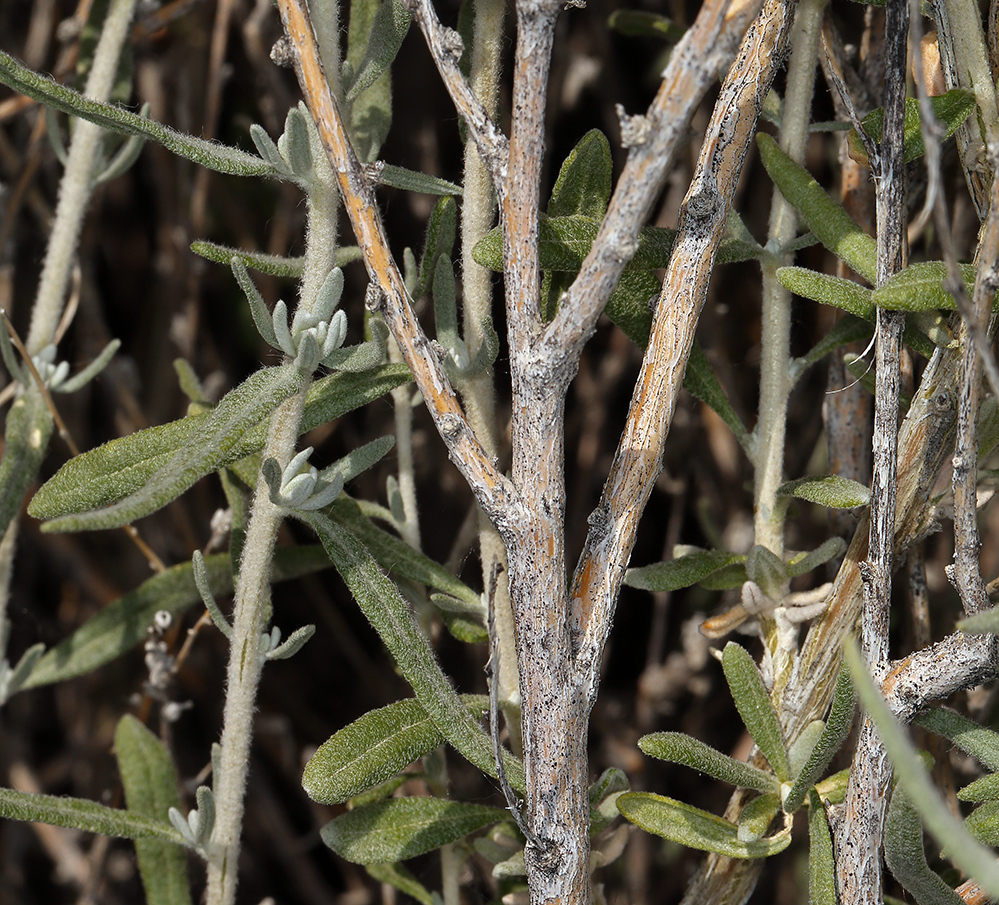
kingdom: Plantae
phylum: Tracheophyta
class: Magnoliopsida
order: Caryophyllales
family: Amaranthaceae
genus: Krascheninnikovia
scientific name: Krascheninnikovia lanata
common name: Winterfat
